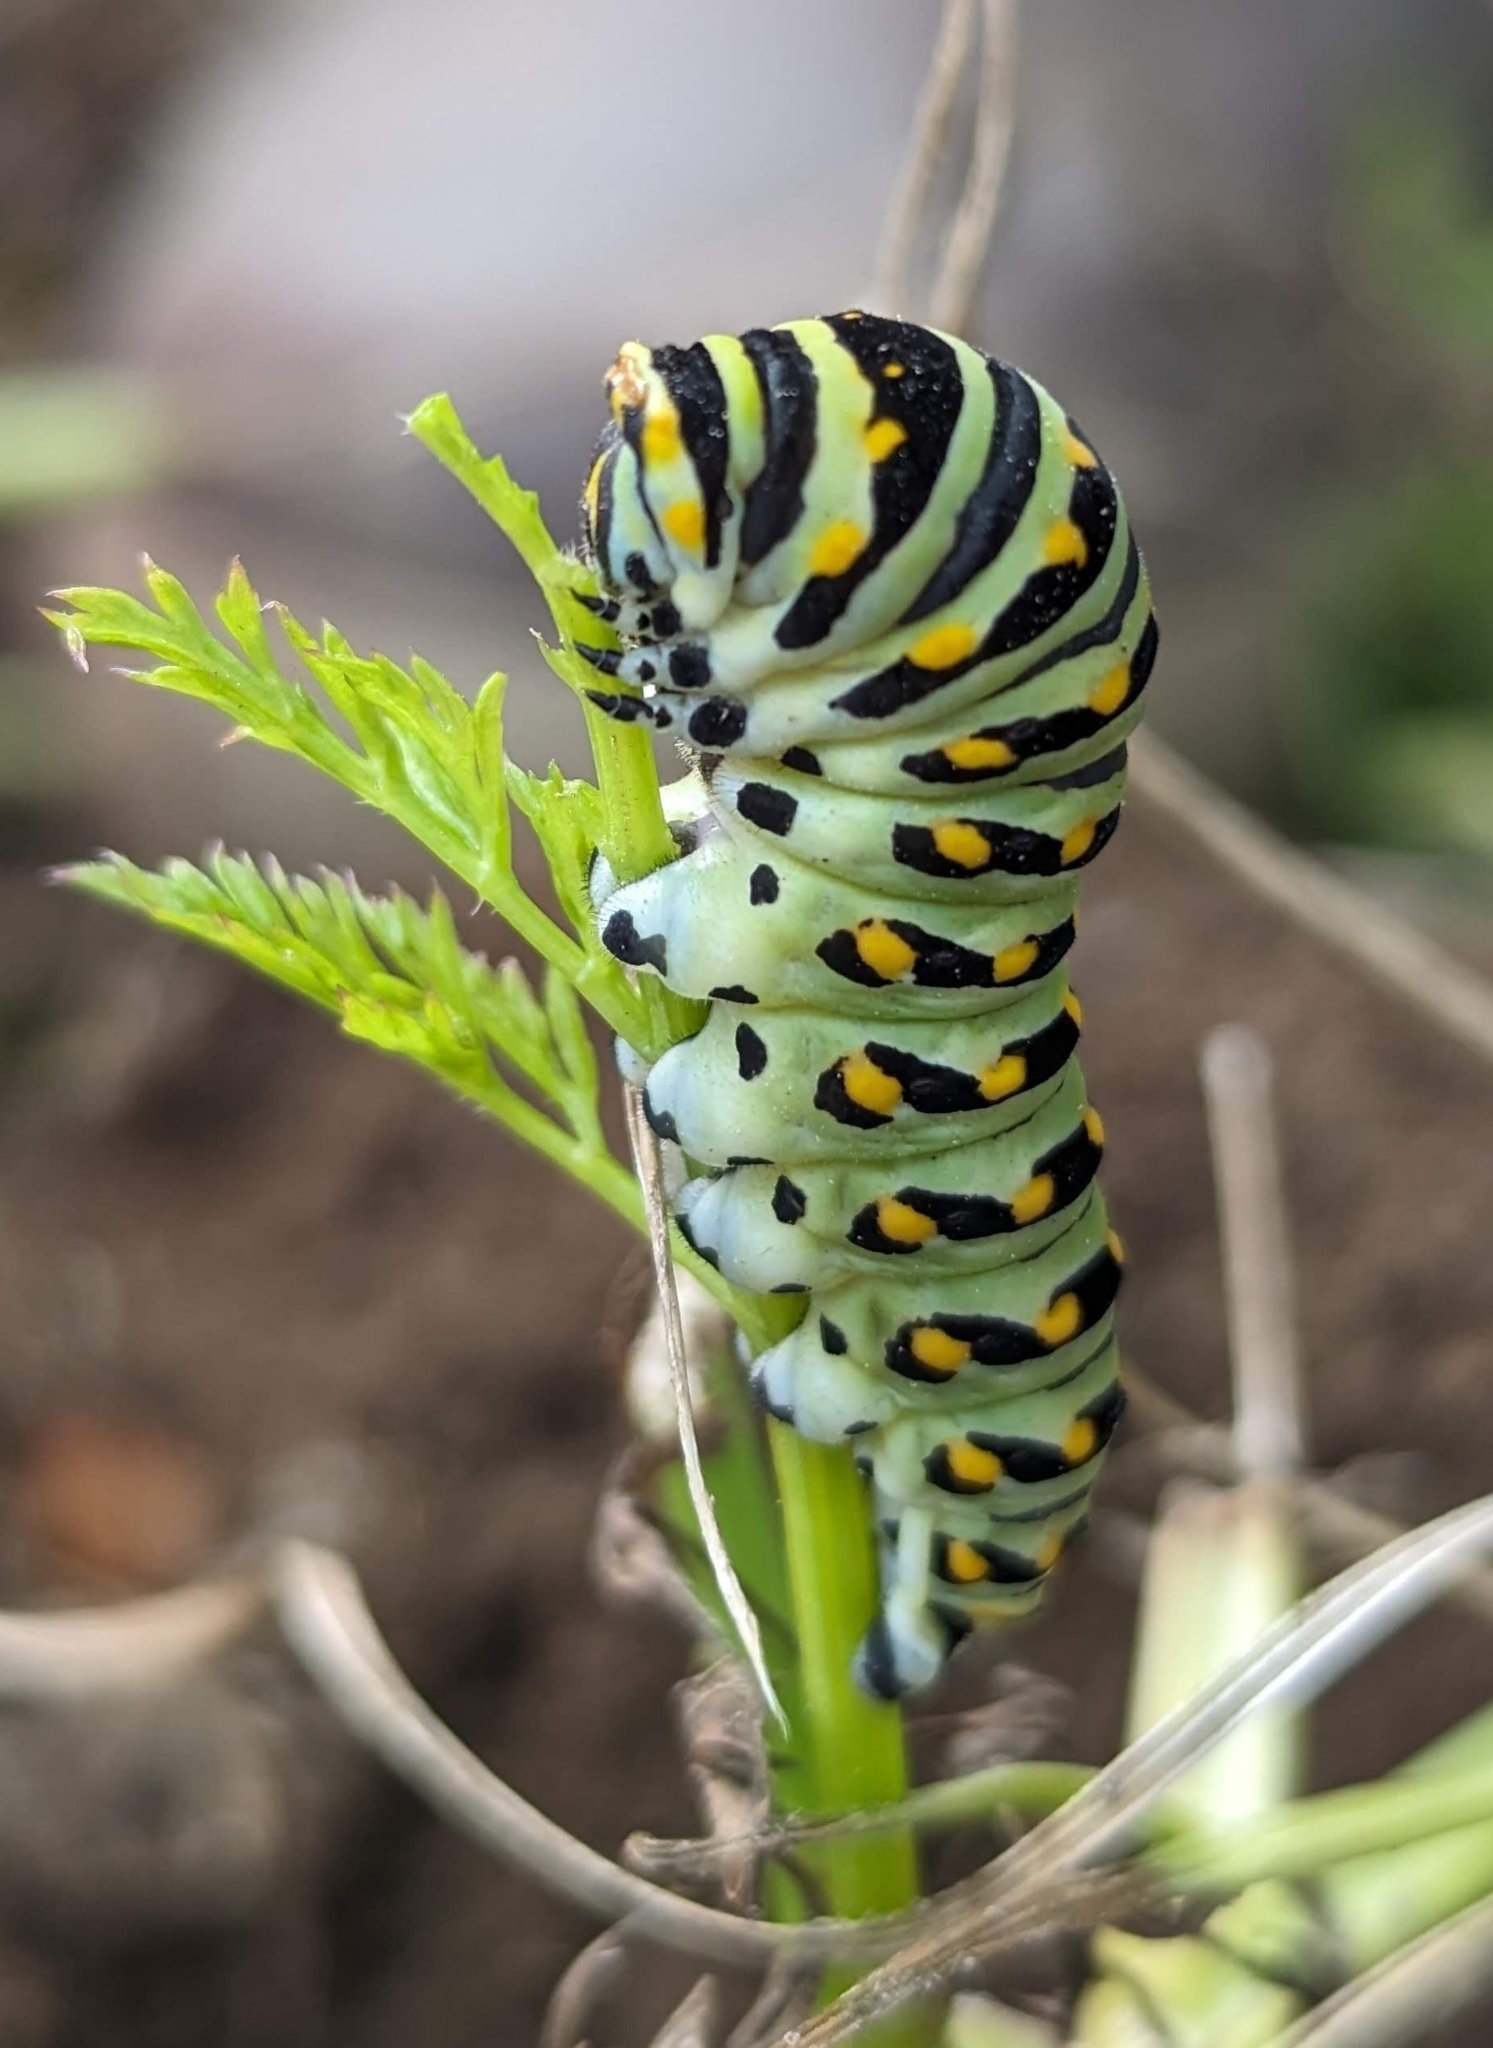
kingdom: Animalia
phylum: Arthropoda
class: Insecta
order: Lepidoptera
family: Papilionidae
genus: Papilio
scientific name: Papilio polyxenes
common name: Black swallowtail
